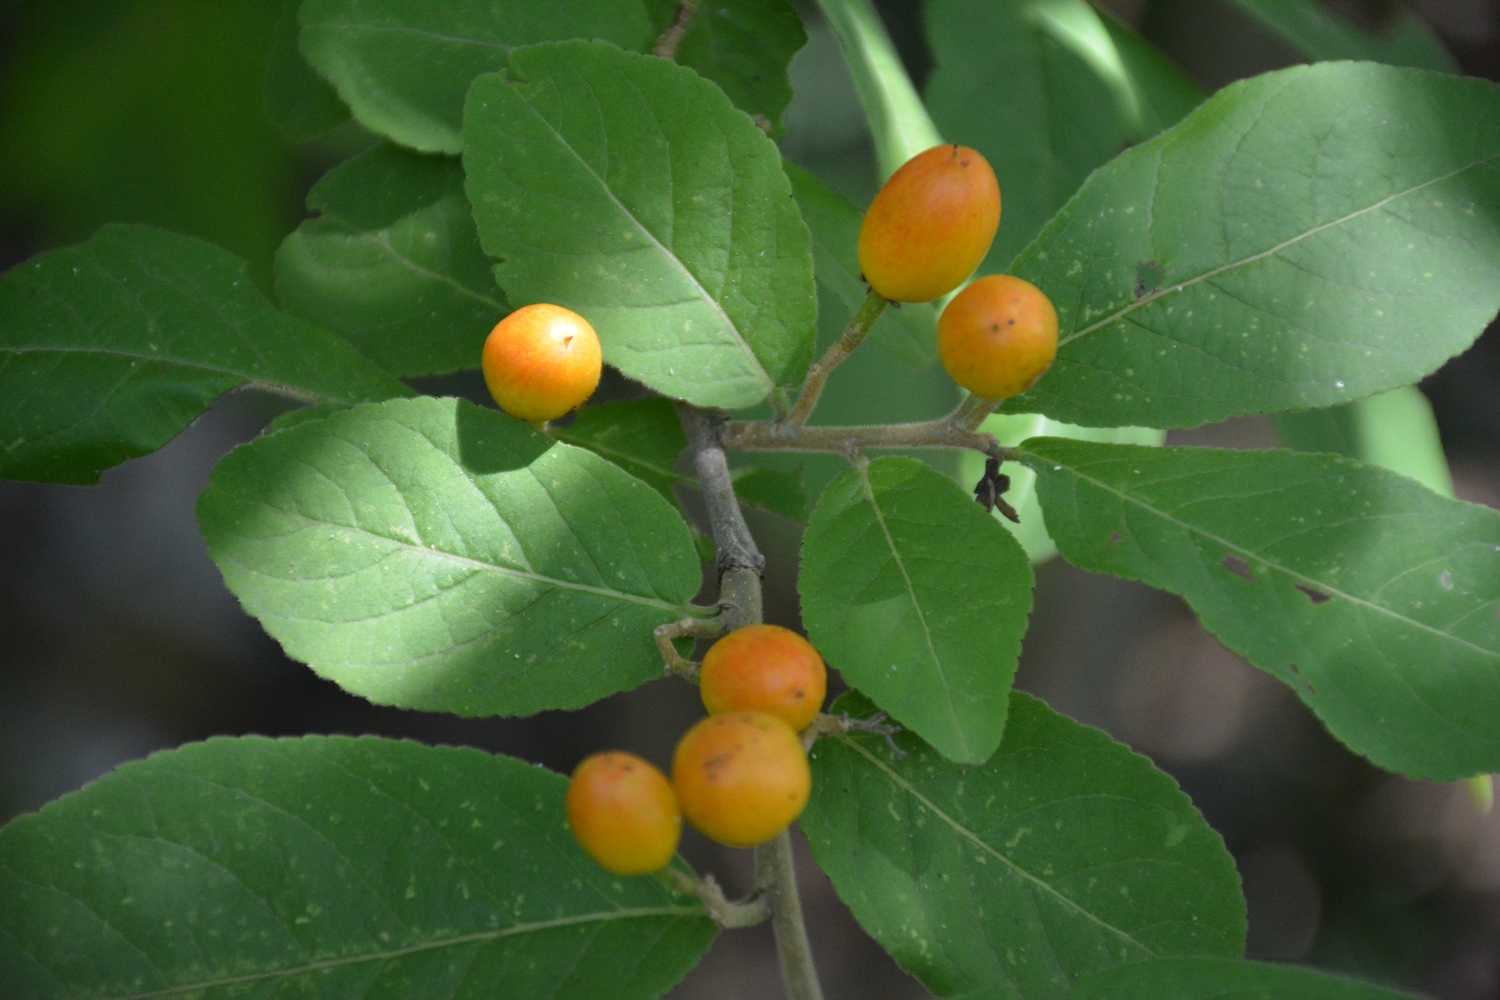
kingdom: Plantae
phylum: Tracheophyta
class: Magnoliopsida
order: Malpighiales
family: Salicaceae
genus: Casearia
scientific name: Casearia nitida
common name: Smooth honeytree
